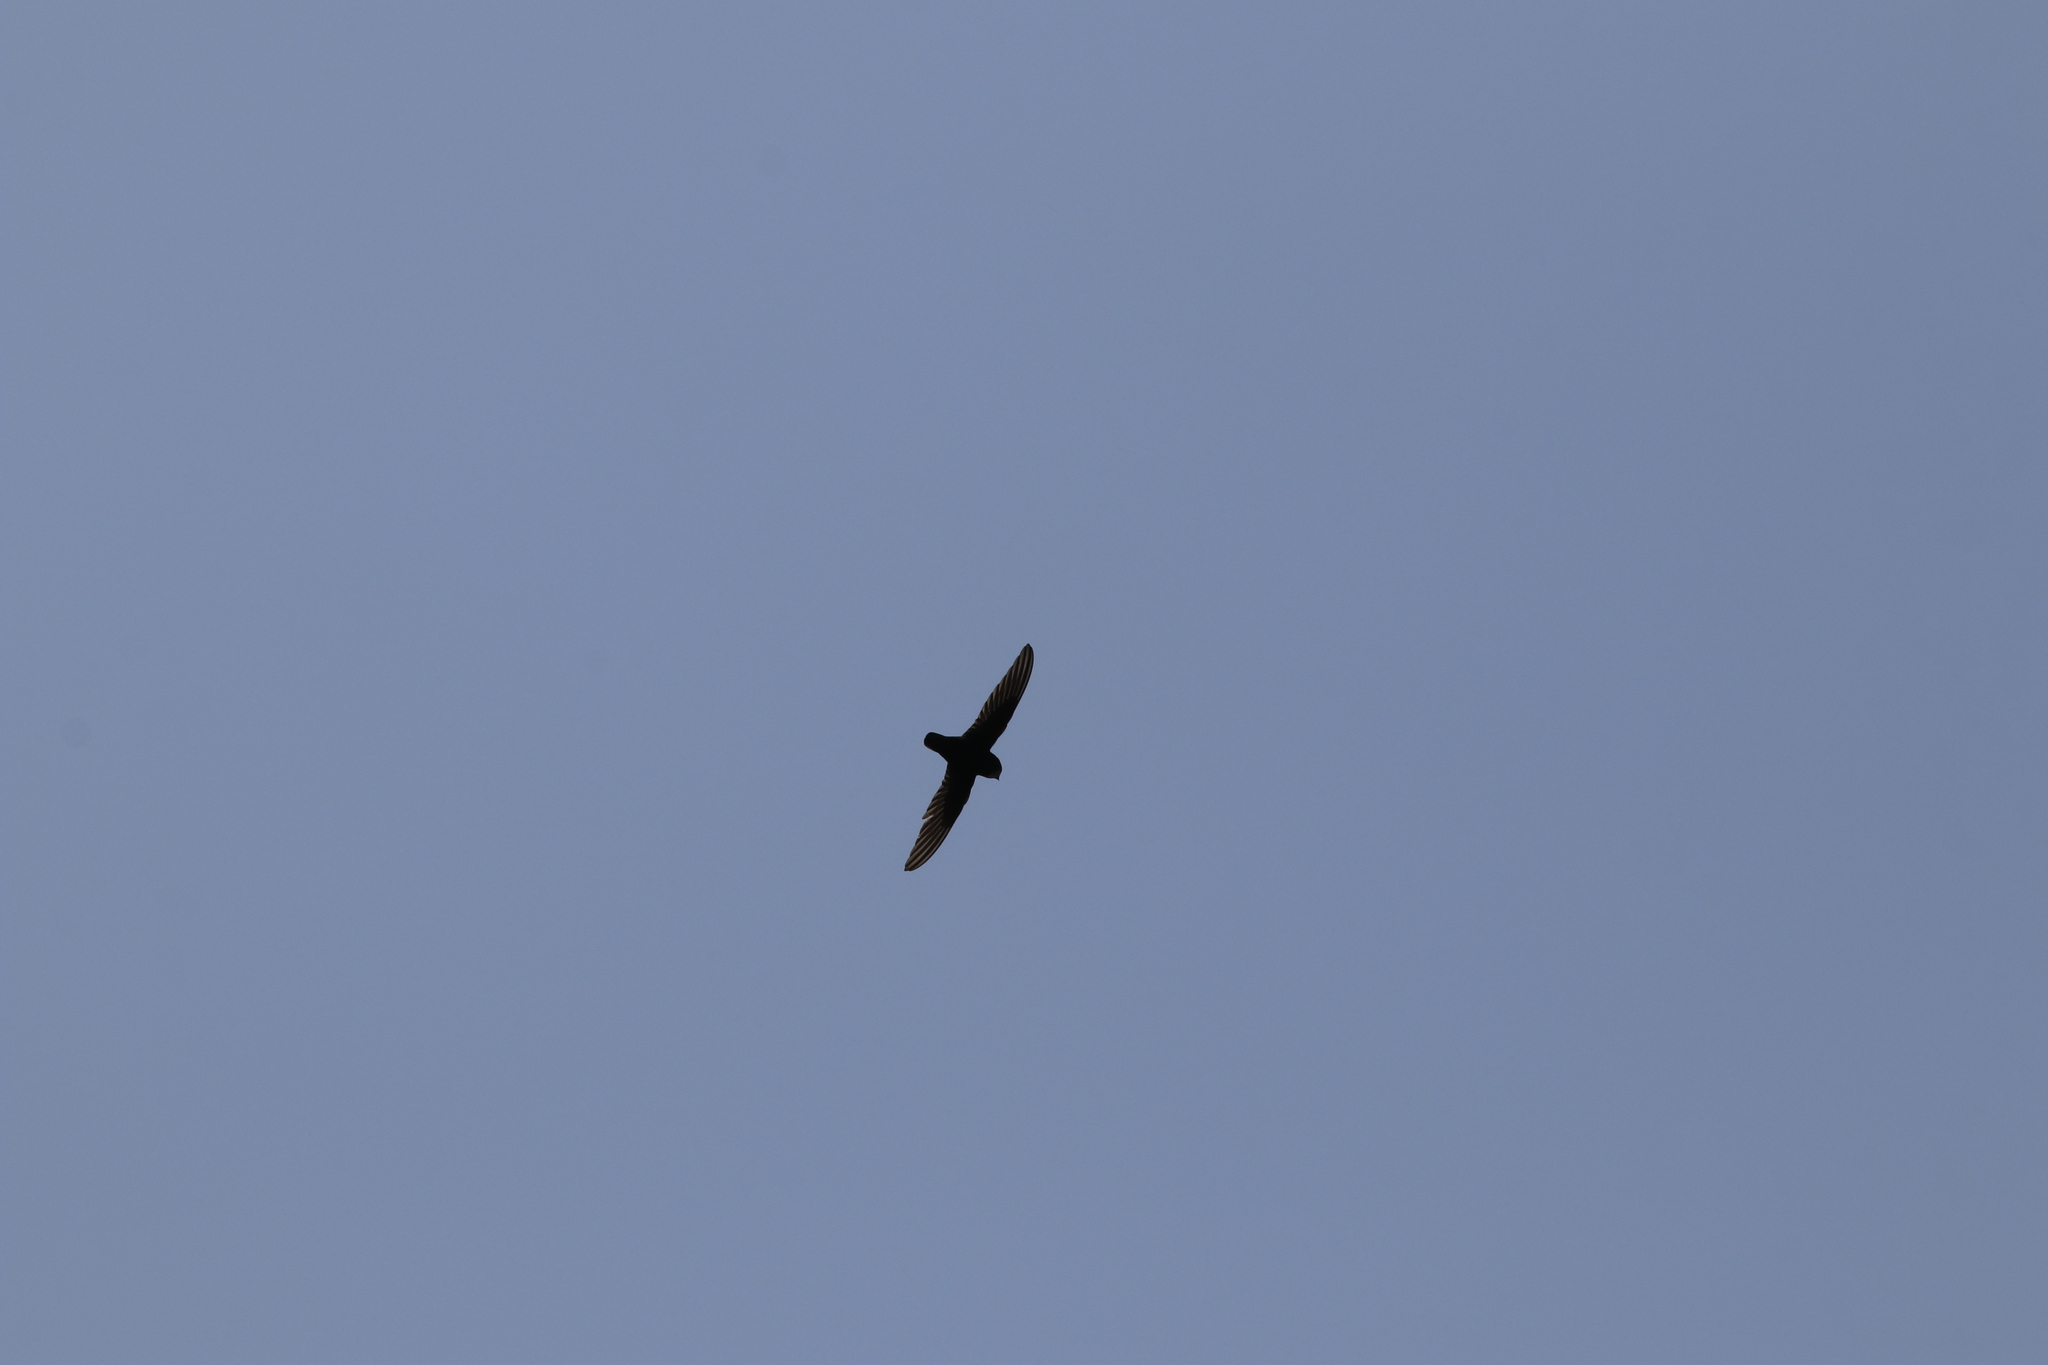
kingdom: Animalia
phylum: Chordata
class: Aves
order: Apodiformes
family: Apodidae
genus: Apus
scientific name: Apus affinis
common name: Little swift
